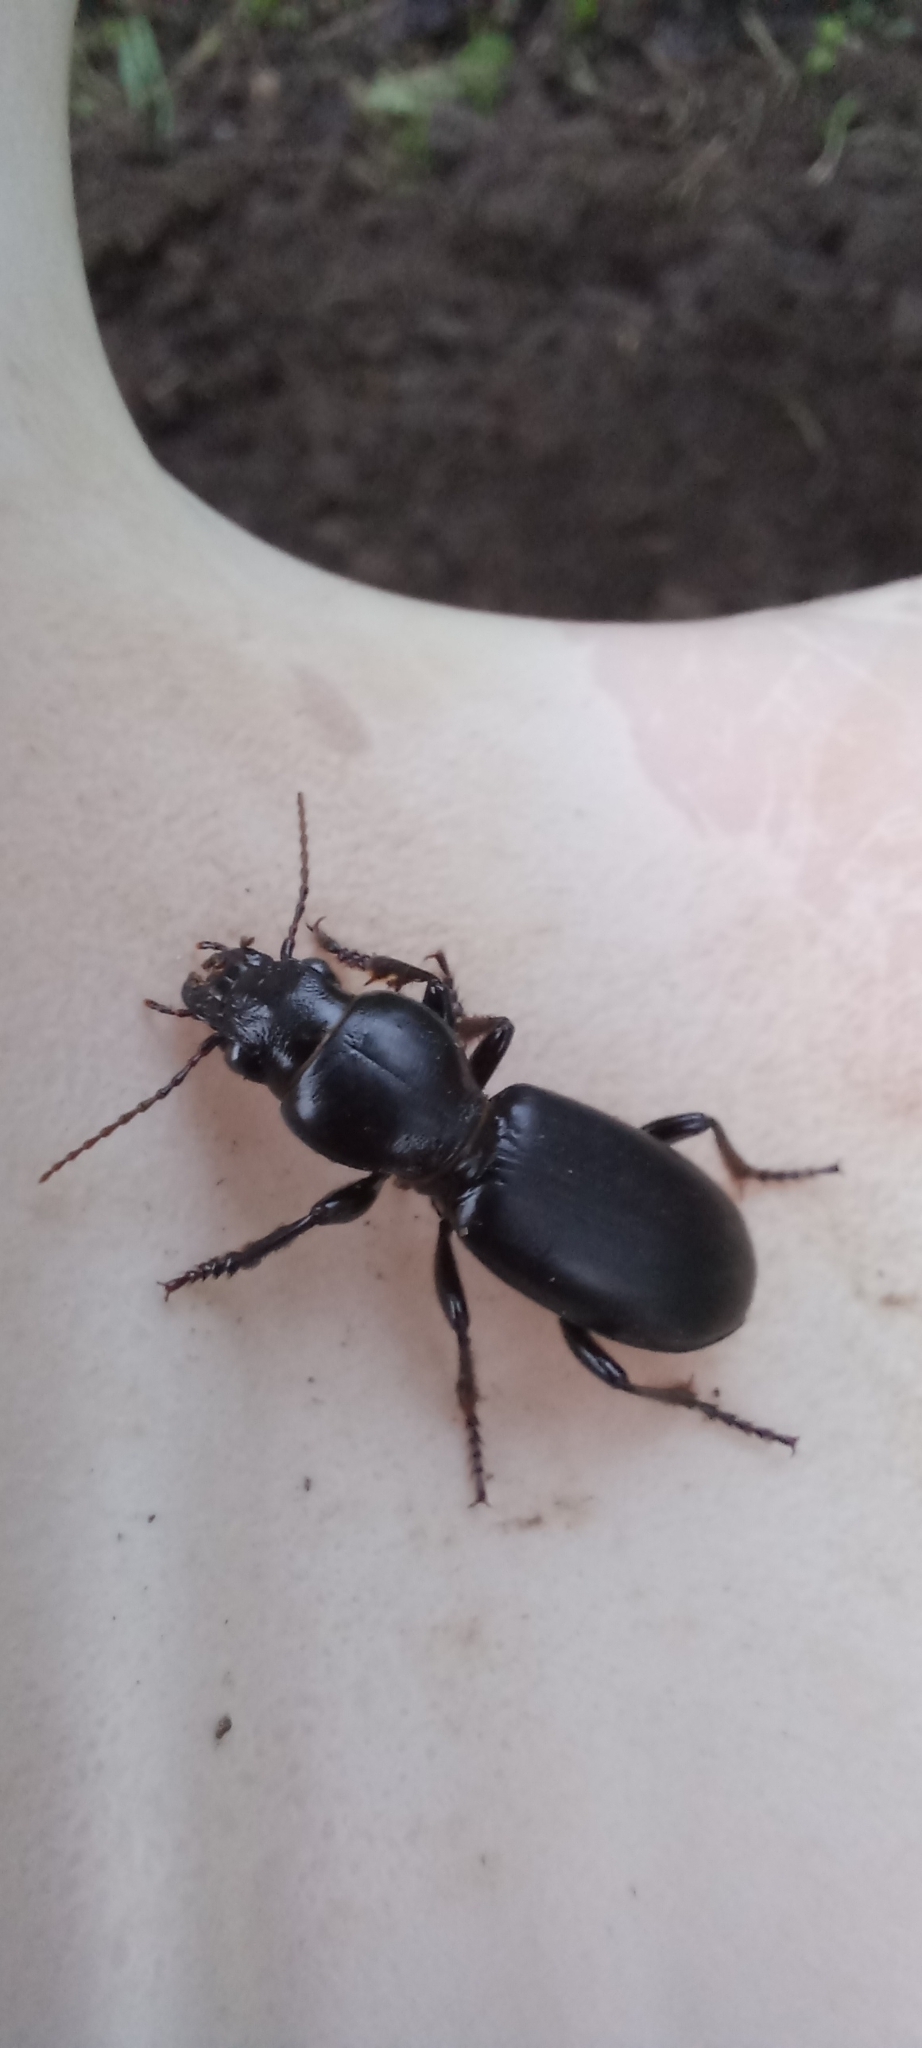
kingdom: Animalia
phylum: Arthropoda
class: Insecta
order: Coleoptera
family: Carabidae
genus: Broscus
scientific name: Broscus cephalotes
